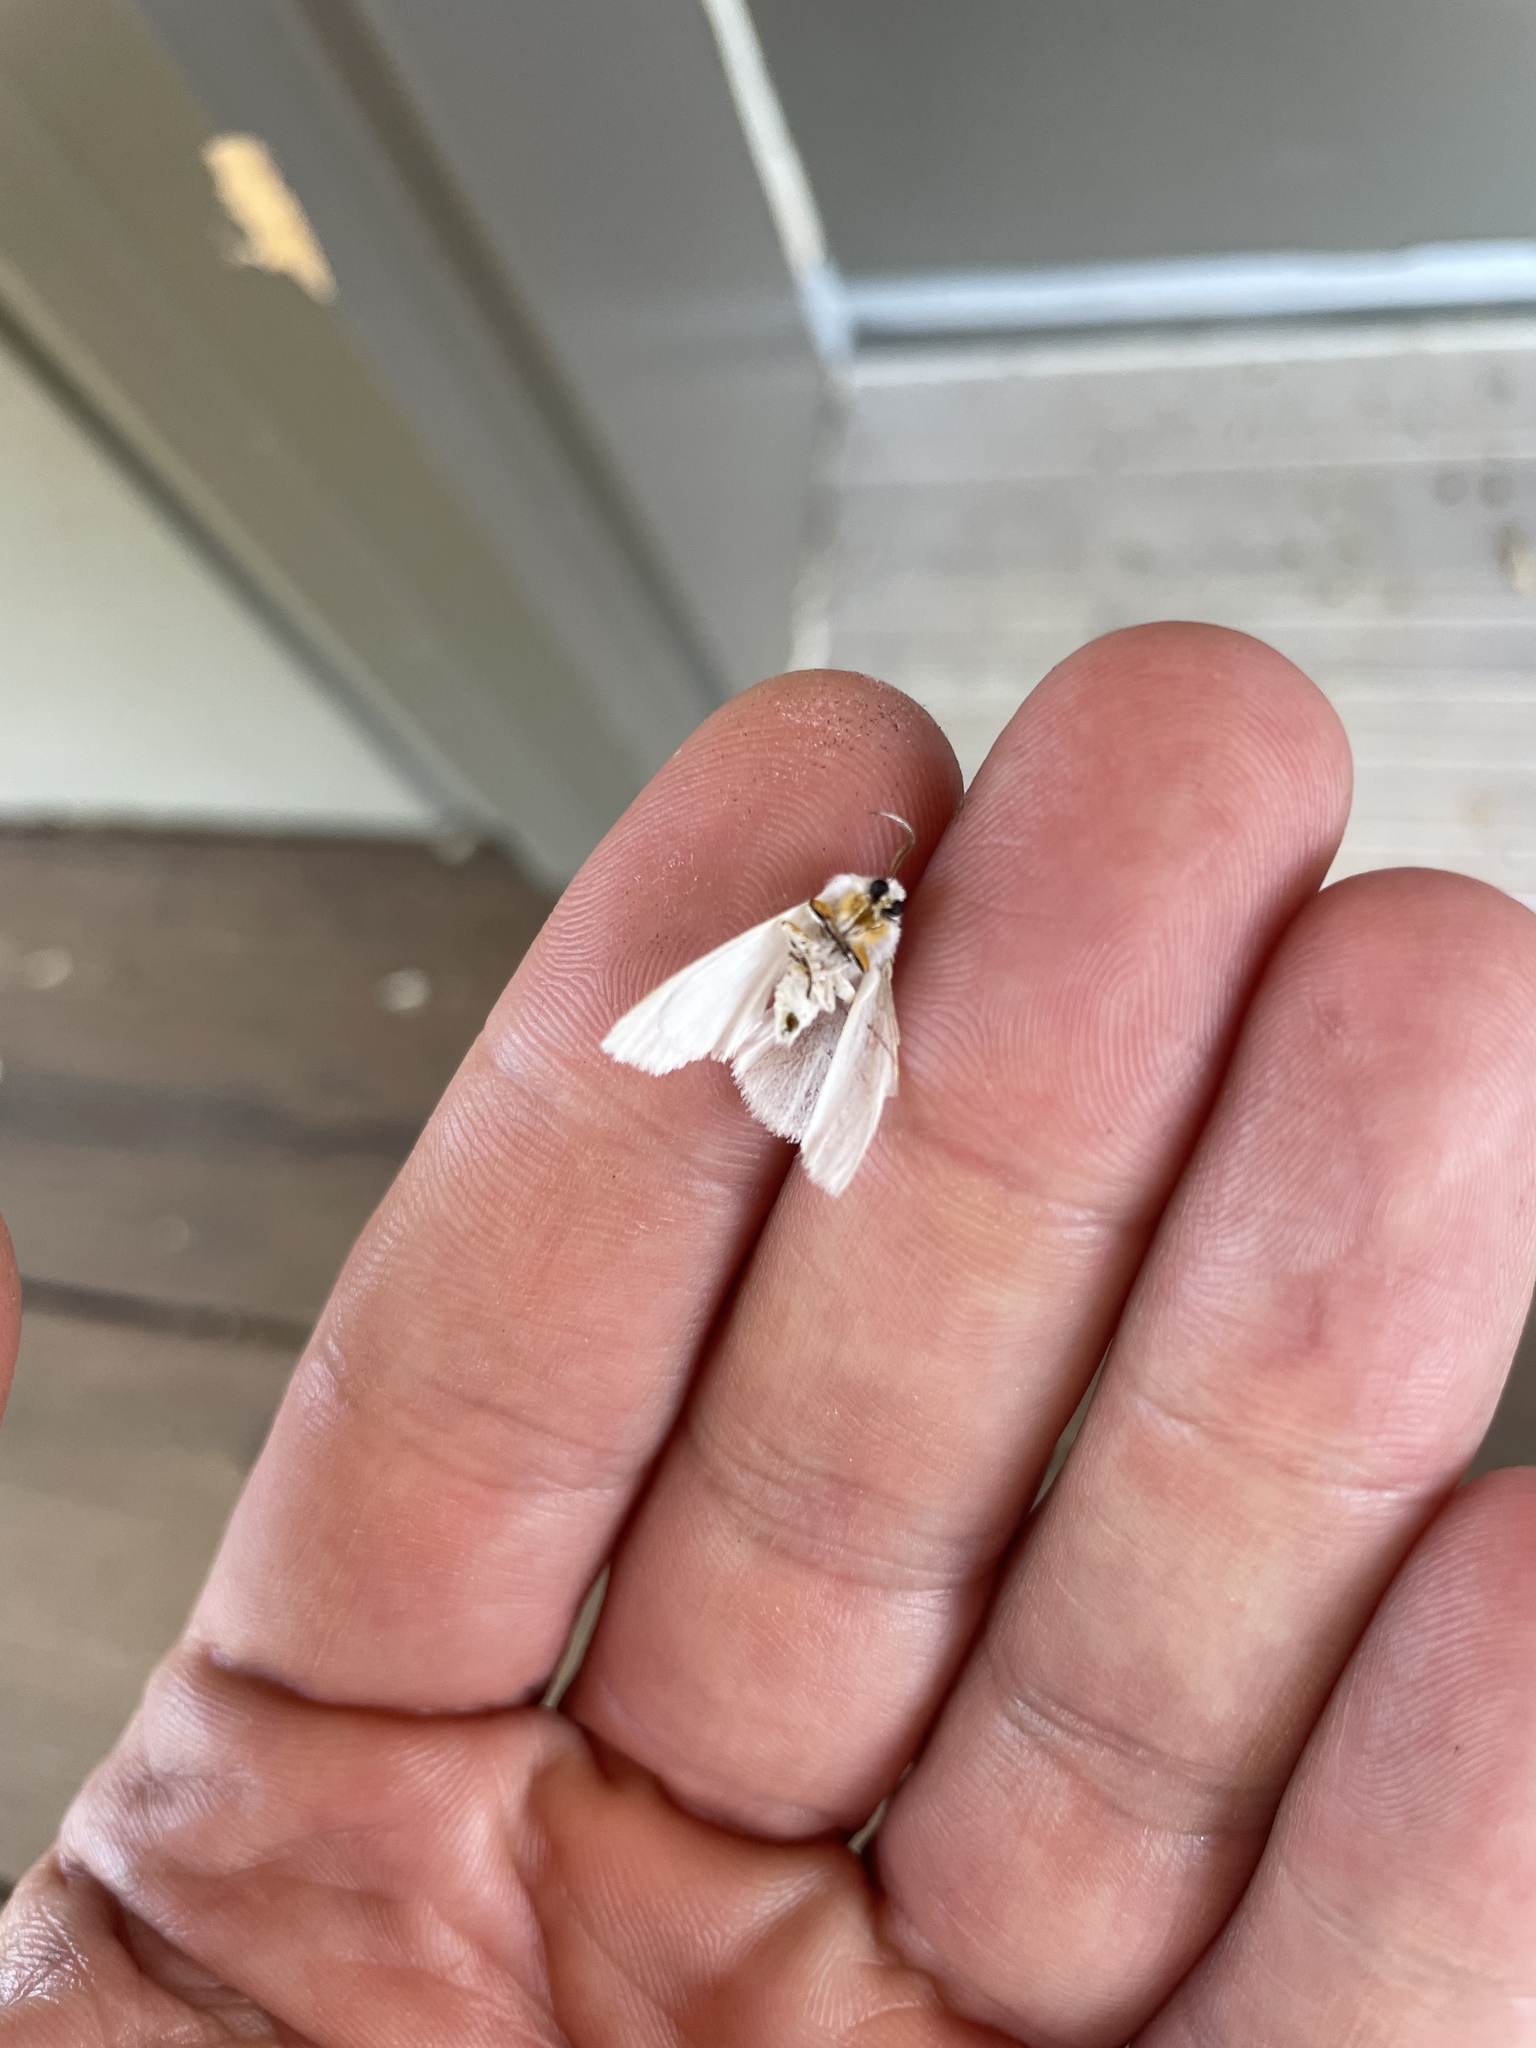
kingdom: Animalia
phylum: Arthropoda
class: Insecta
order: Lepidoptera
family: Erebidae
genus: Hyphantria
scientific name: Hyphantria cunea
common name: American white moth
